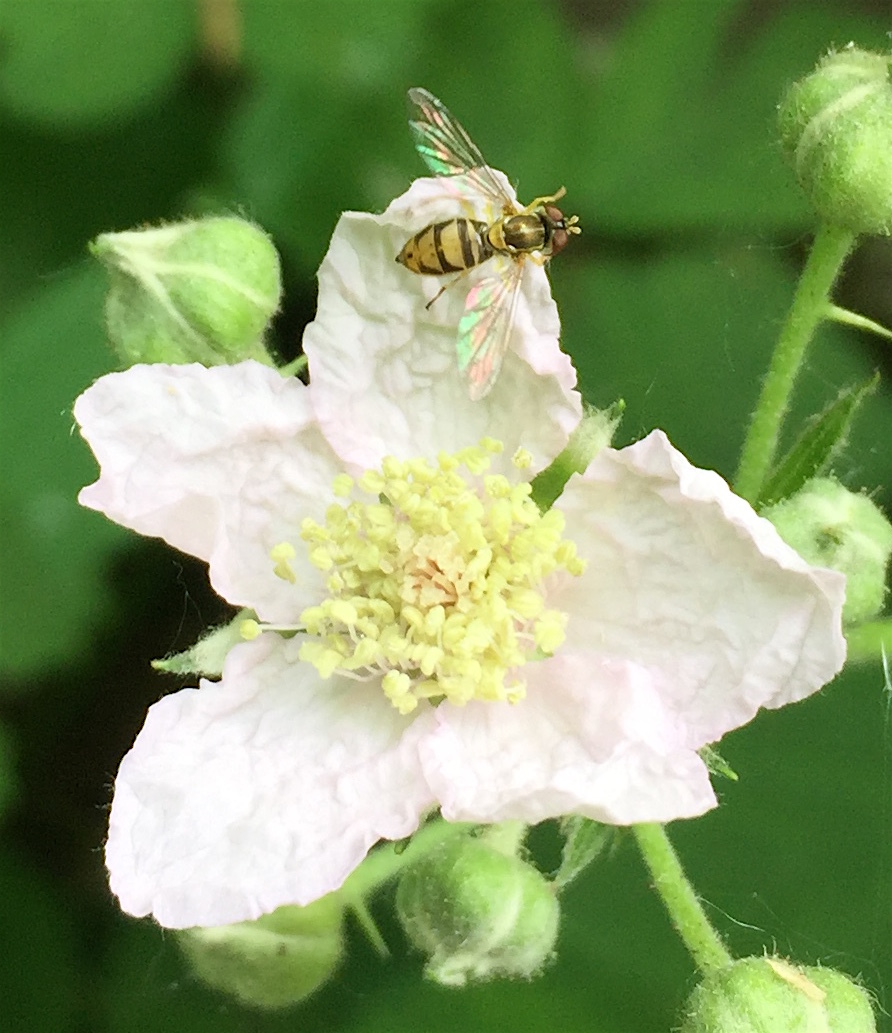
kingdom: Animalia
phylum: Arthropoda
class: Insecta
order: Diptera
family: Syrphidae
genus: Toxomerus
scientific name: Toxomerus marginatus
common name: Syrphid fly
